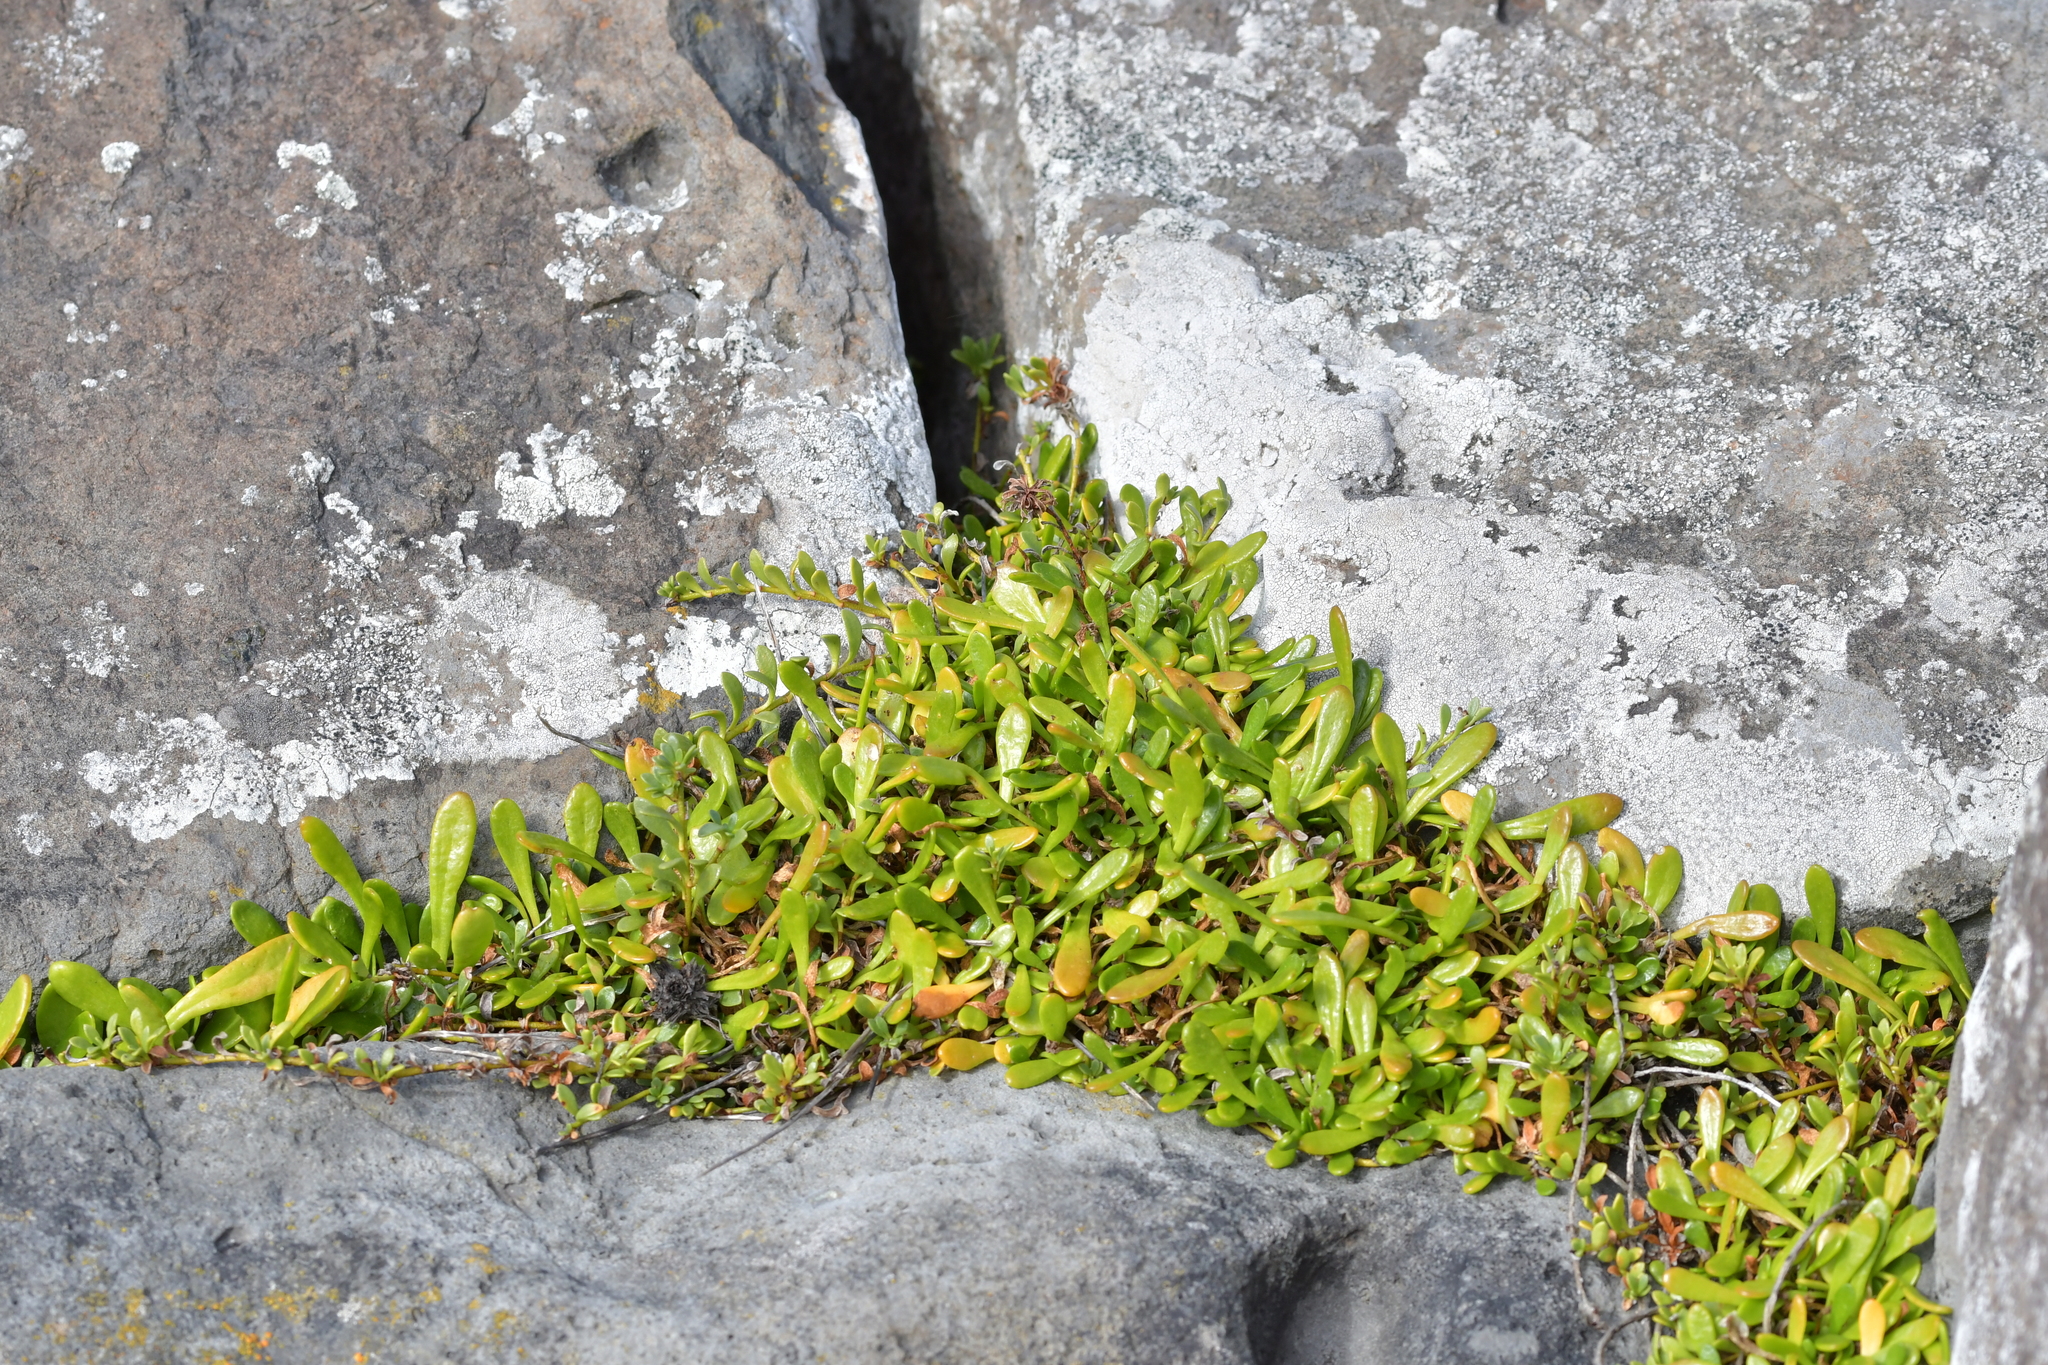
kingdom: Plantae
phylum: Tracheophyta
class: Magnoliopsida
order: Asterales
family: Goodeniaceae
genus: Goodenia
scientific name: Goodenia radicans
